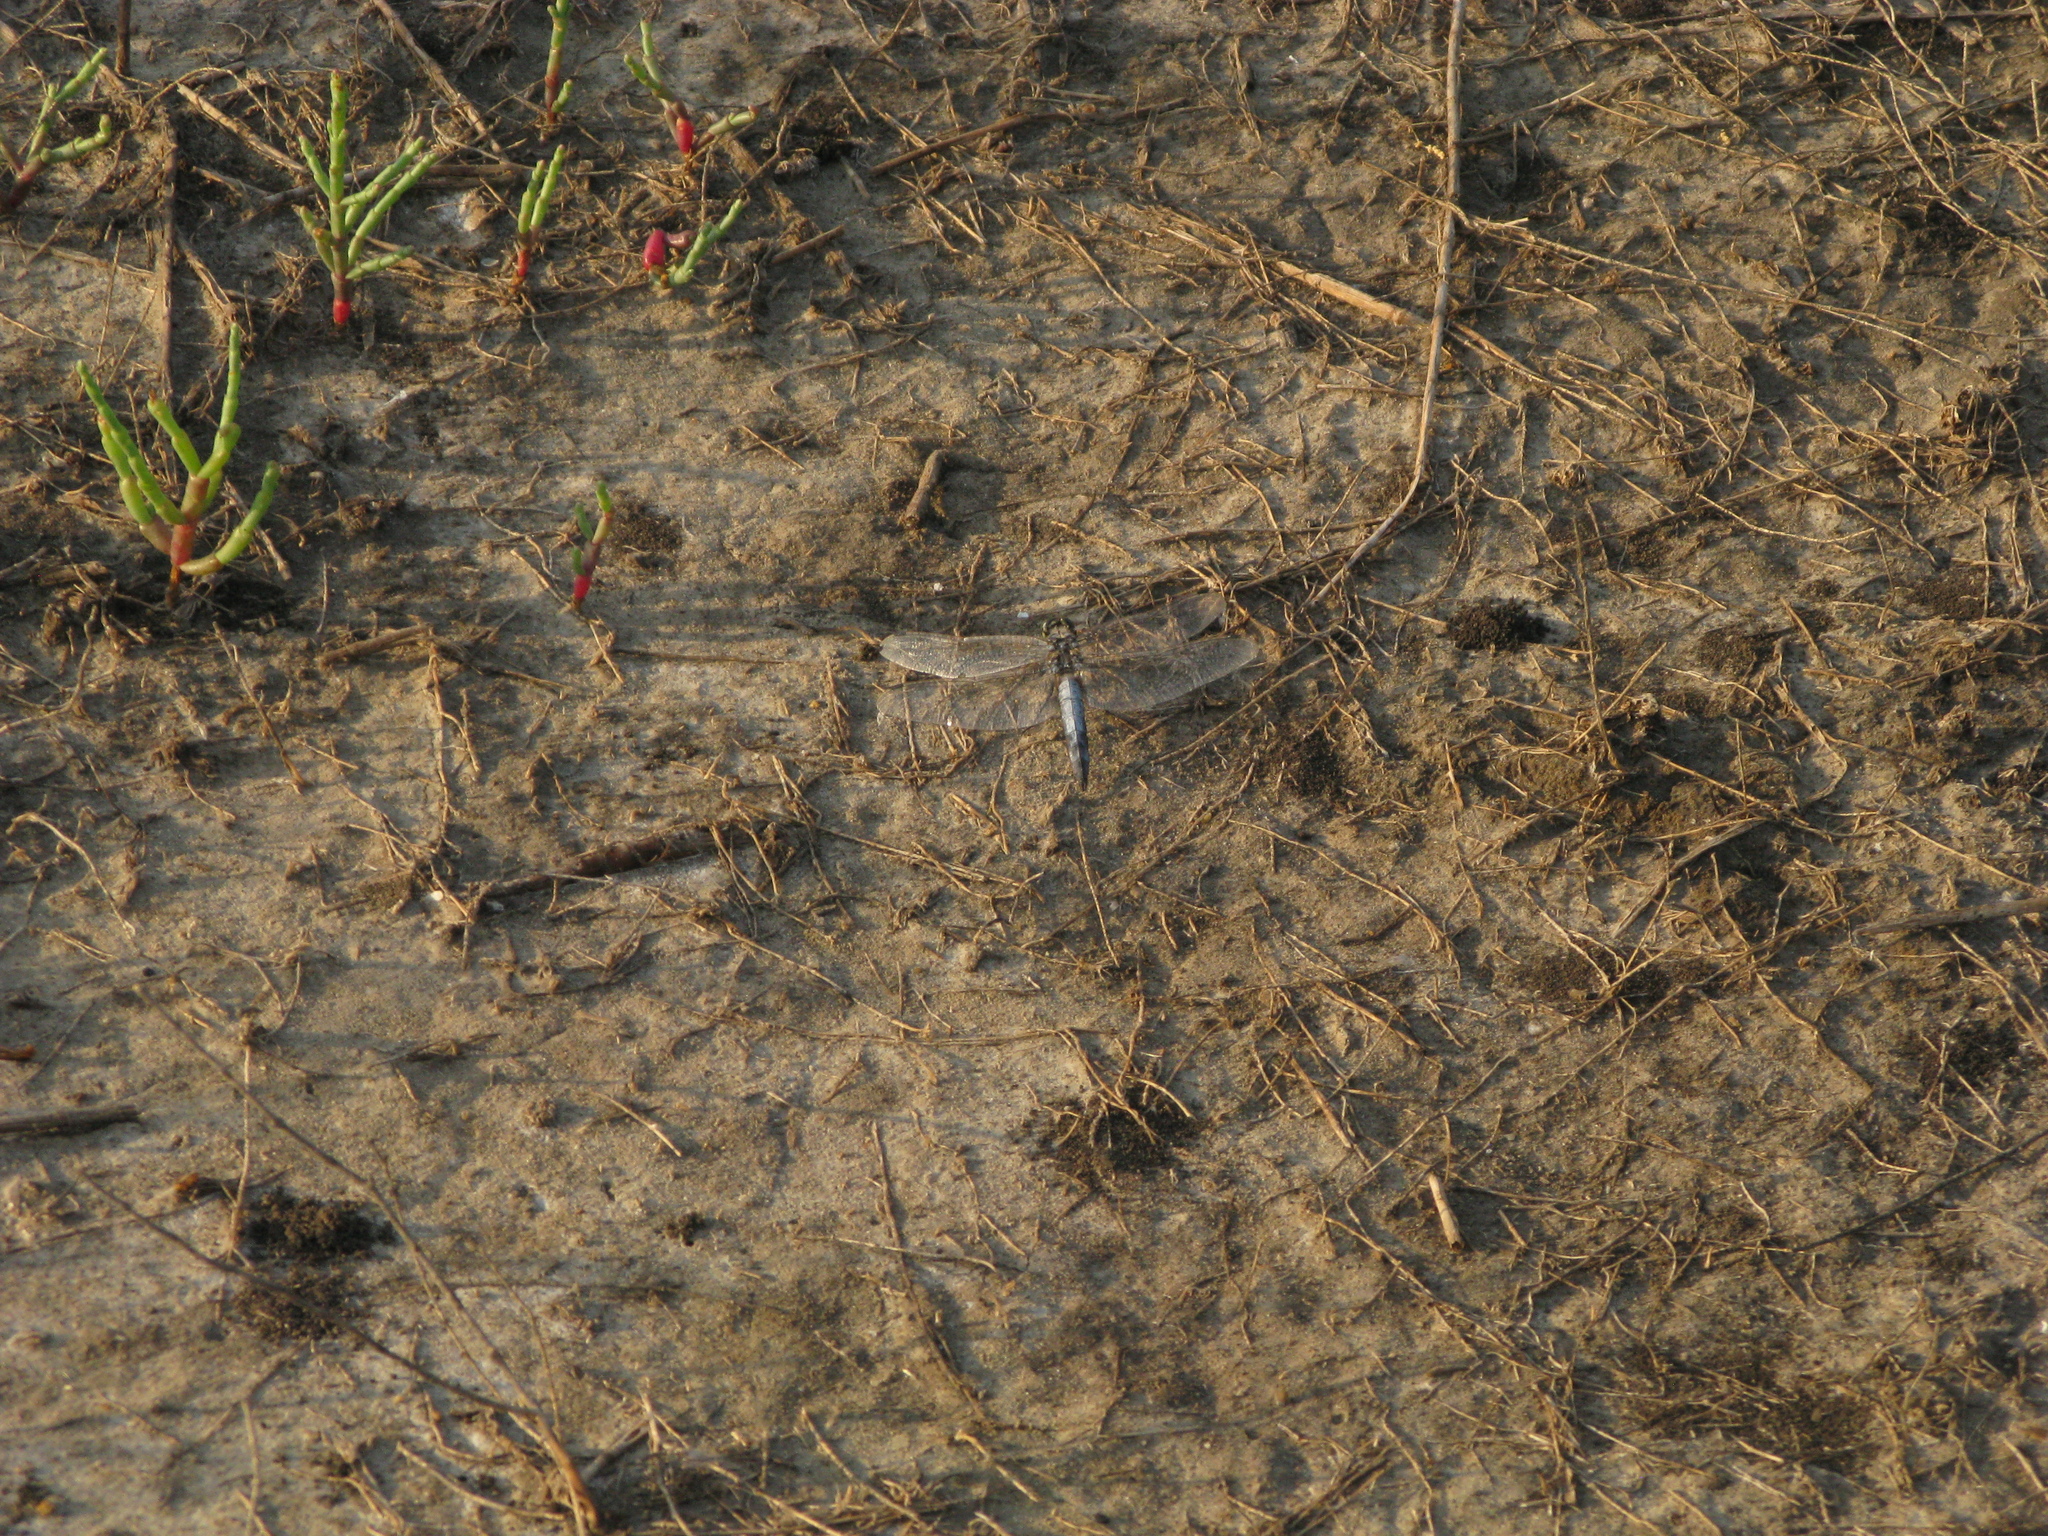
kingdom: Animalia
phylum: Arthropoda
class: Insecta
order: Odonata
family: Libellulidae
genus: Orthetrum
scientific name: Orthetrum cancellatum
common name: Black-tailed skimmer
